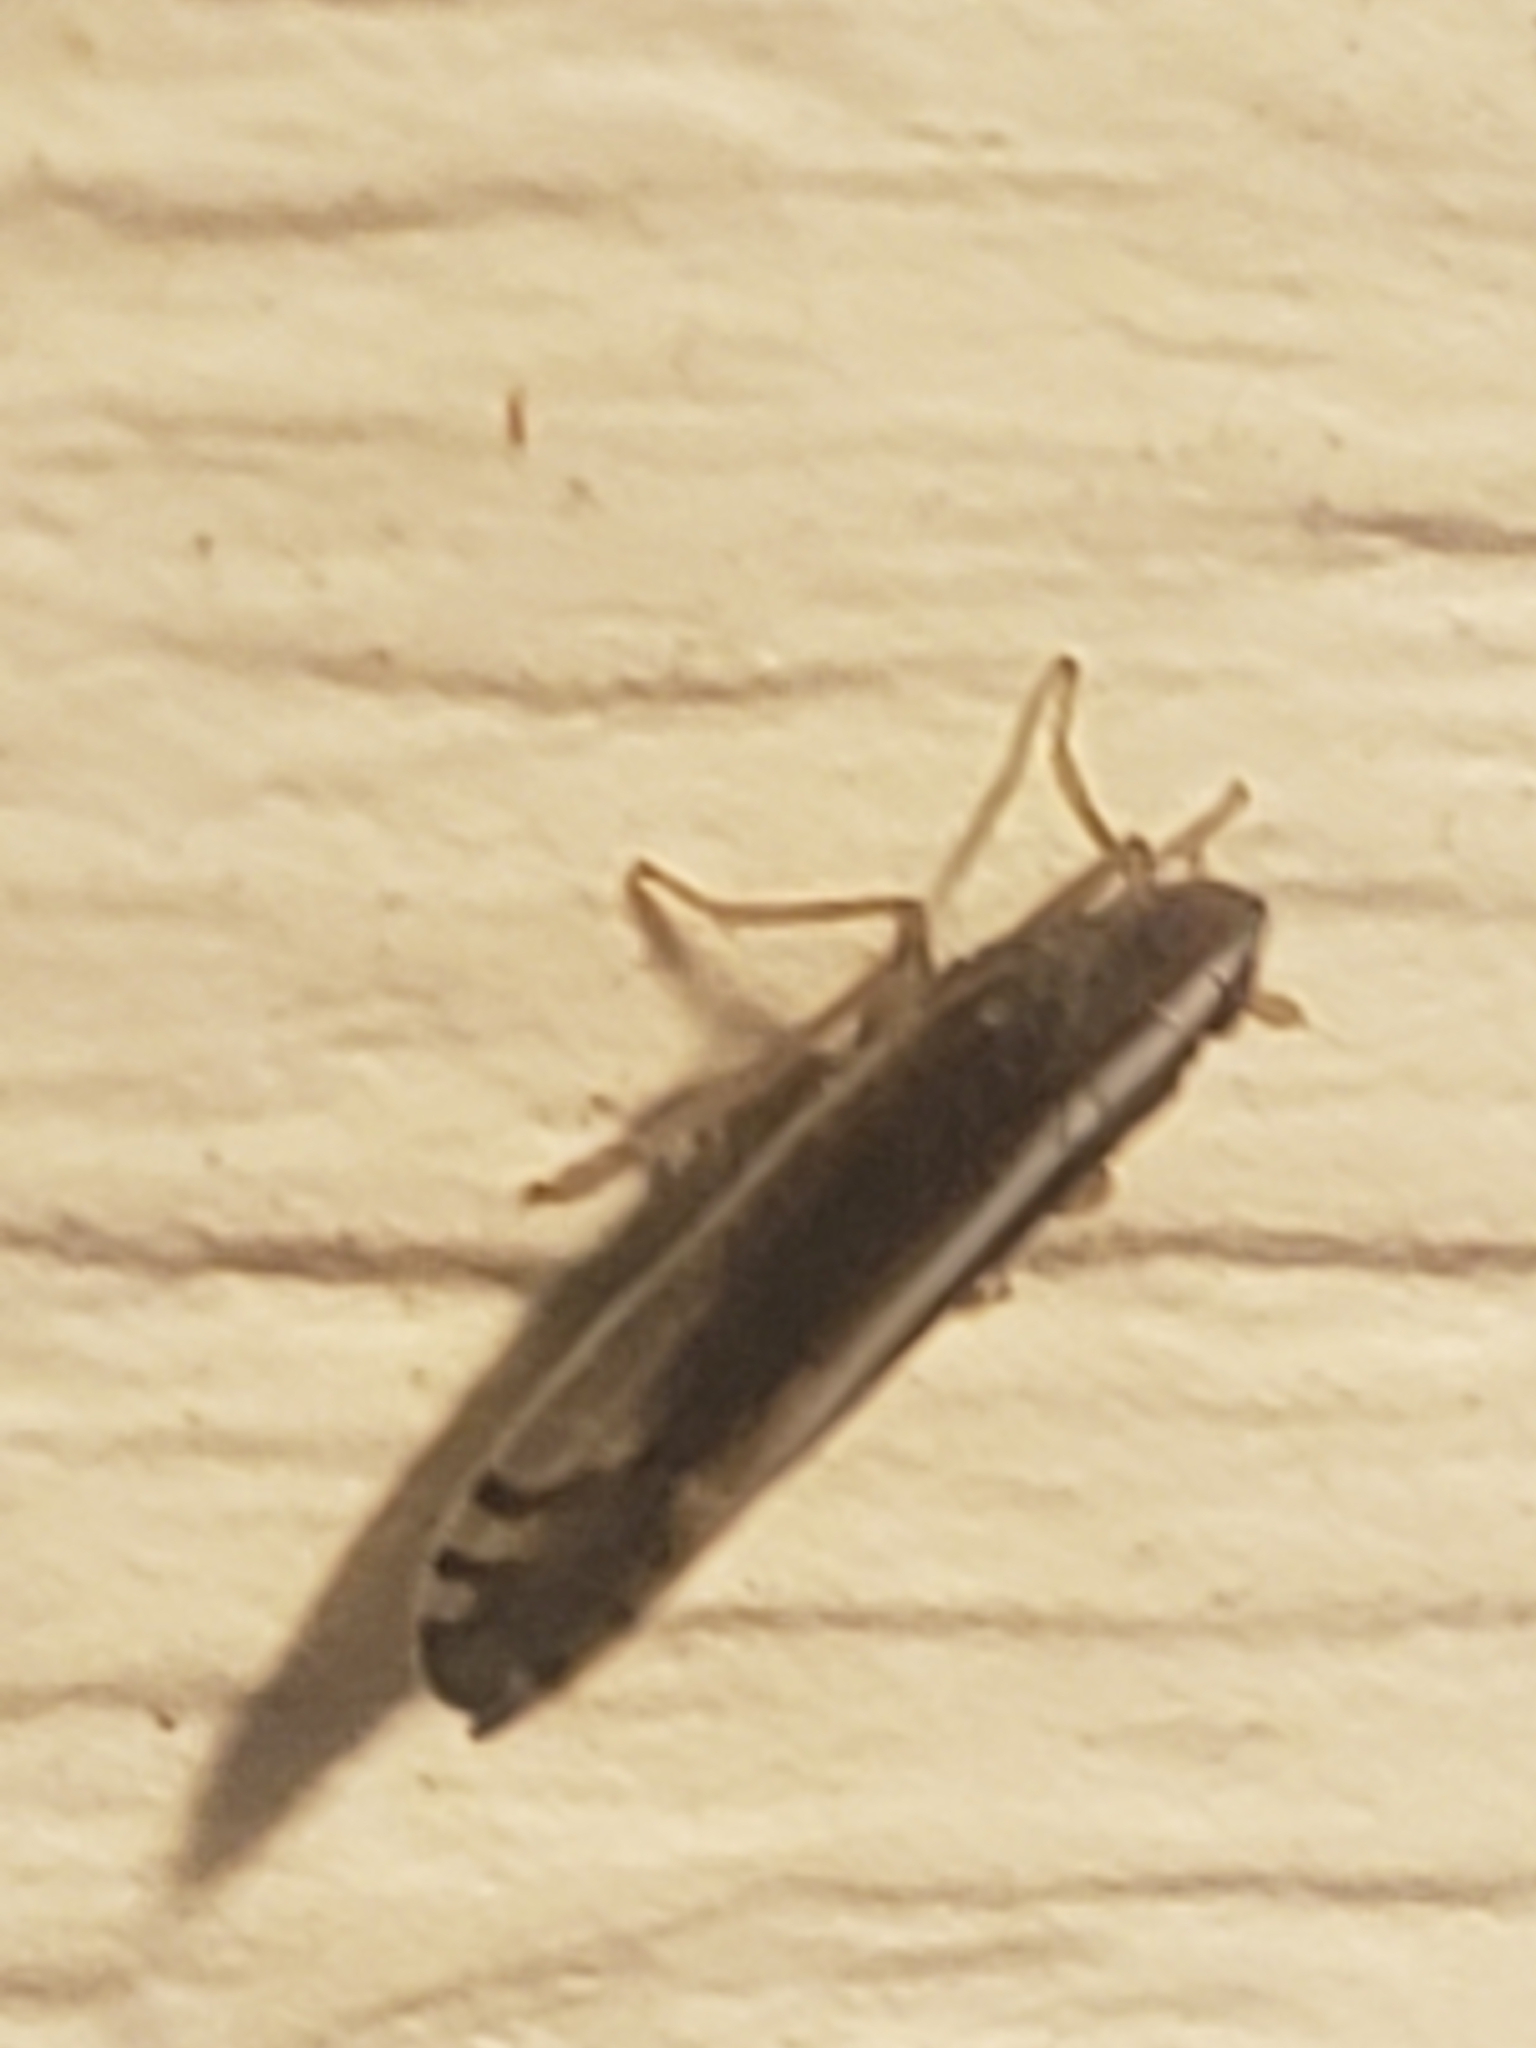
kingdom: Animalia
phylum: Arthropoda
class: Insecta
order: Hemiptera
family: Delphacidae
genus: Stenocranus
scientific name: Stenocranus brunneus
